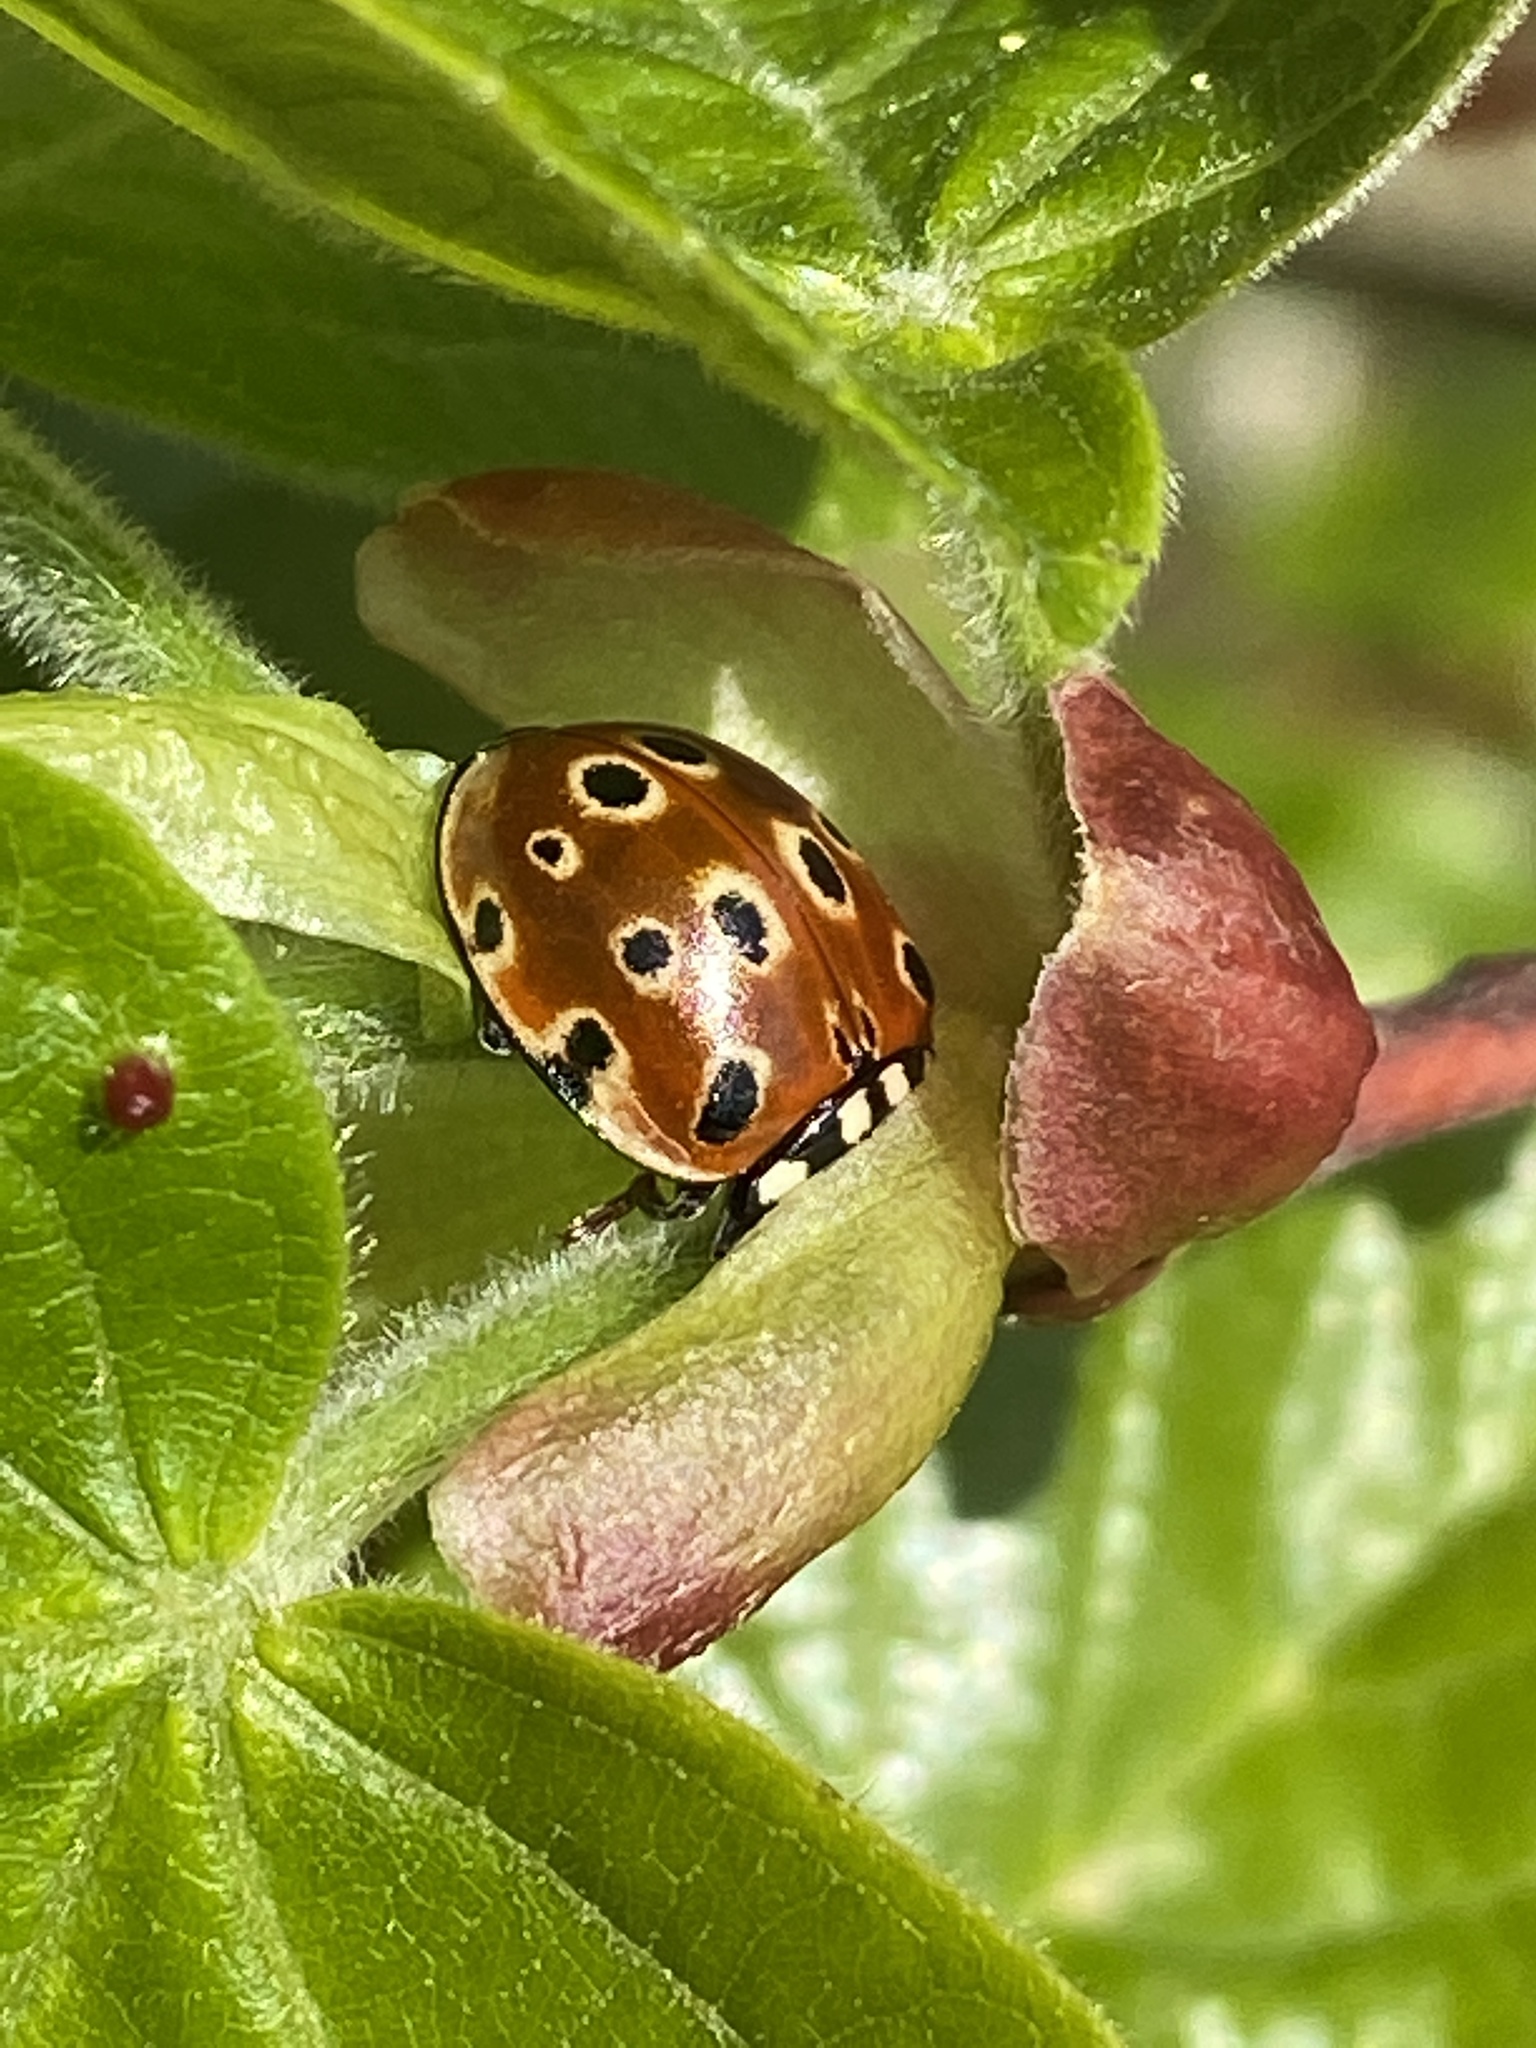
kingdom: Animalia
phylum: Arthropoda
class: Insecta
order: Coleoptera
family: Coccinellidae
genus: Anatis
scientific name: Anatis ocellata
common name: Eyed ladybird
